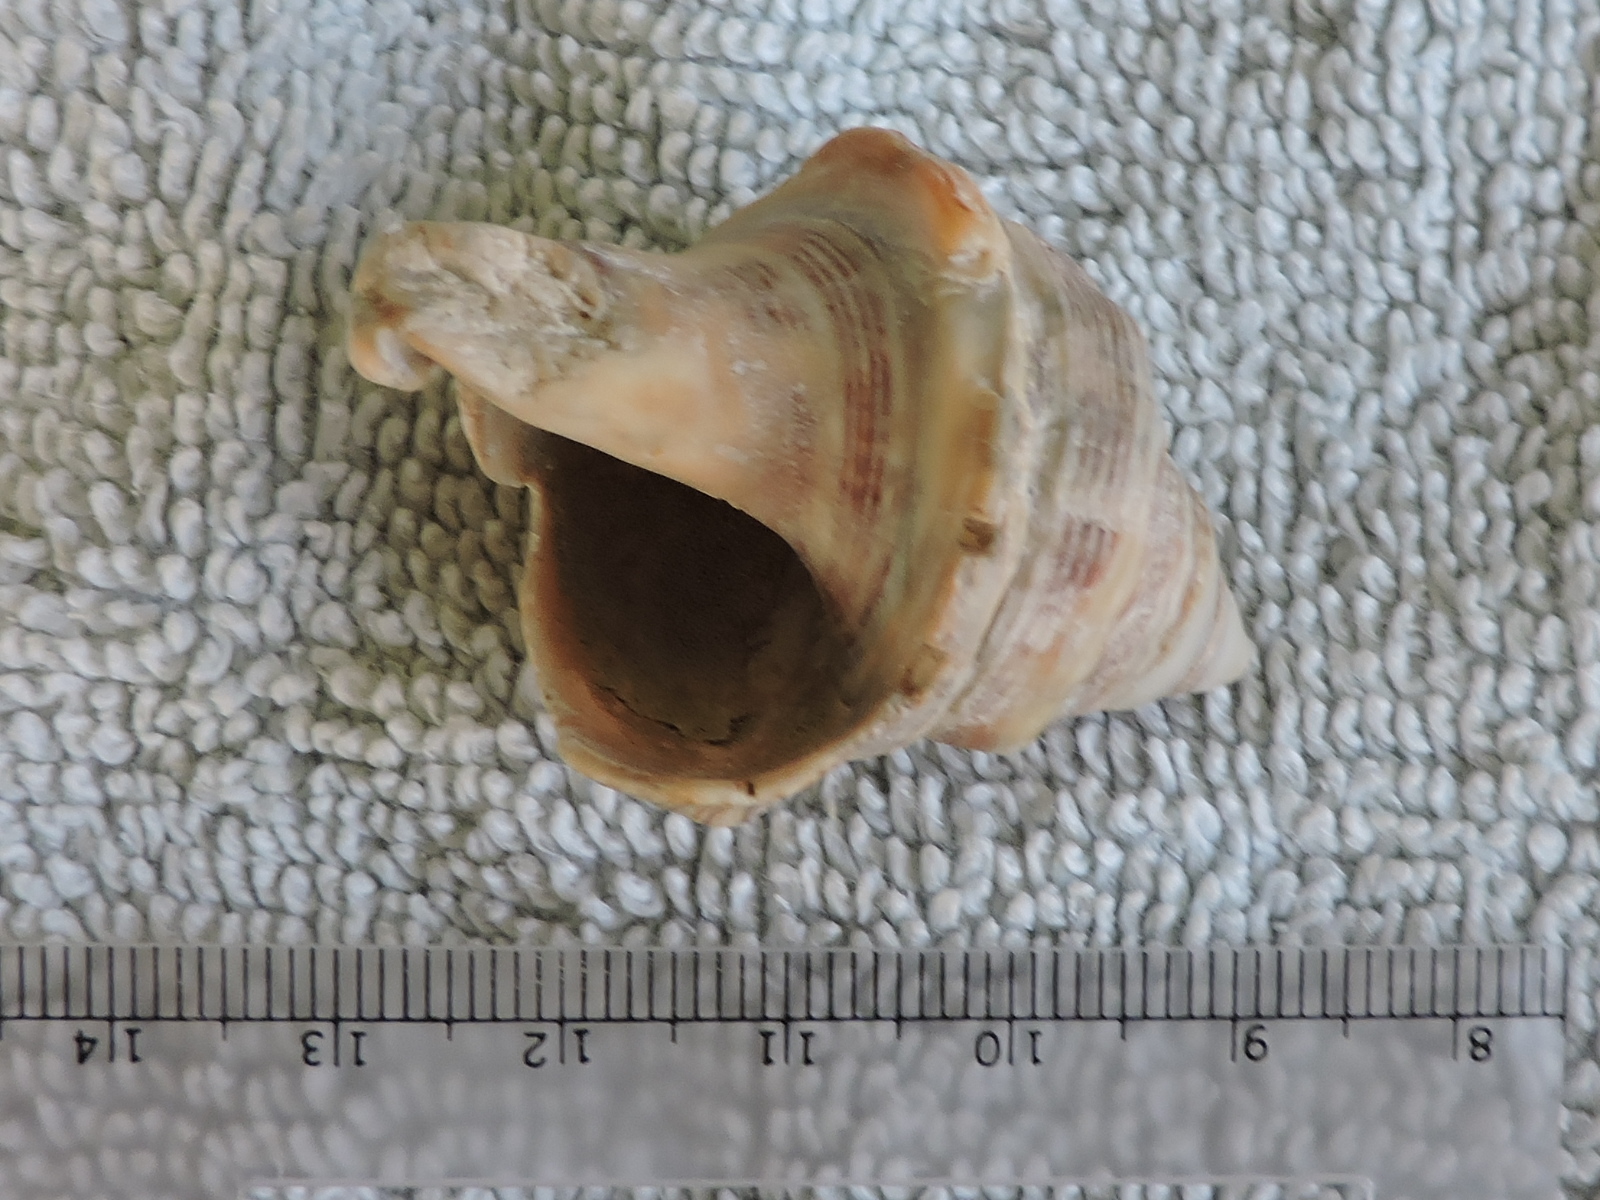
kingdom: Animalia
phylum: Mollusca
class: Gastropoda
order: Neogastropoda
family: Muricidae
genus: Stramonita
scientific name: Stramonita canaliculata
